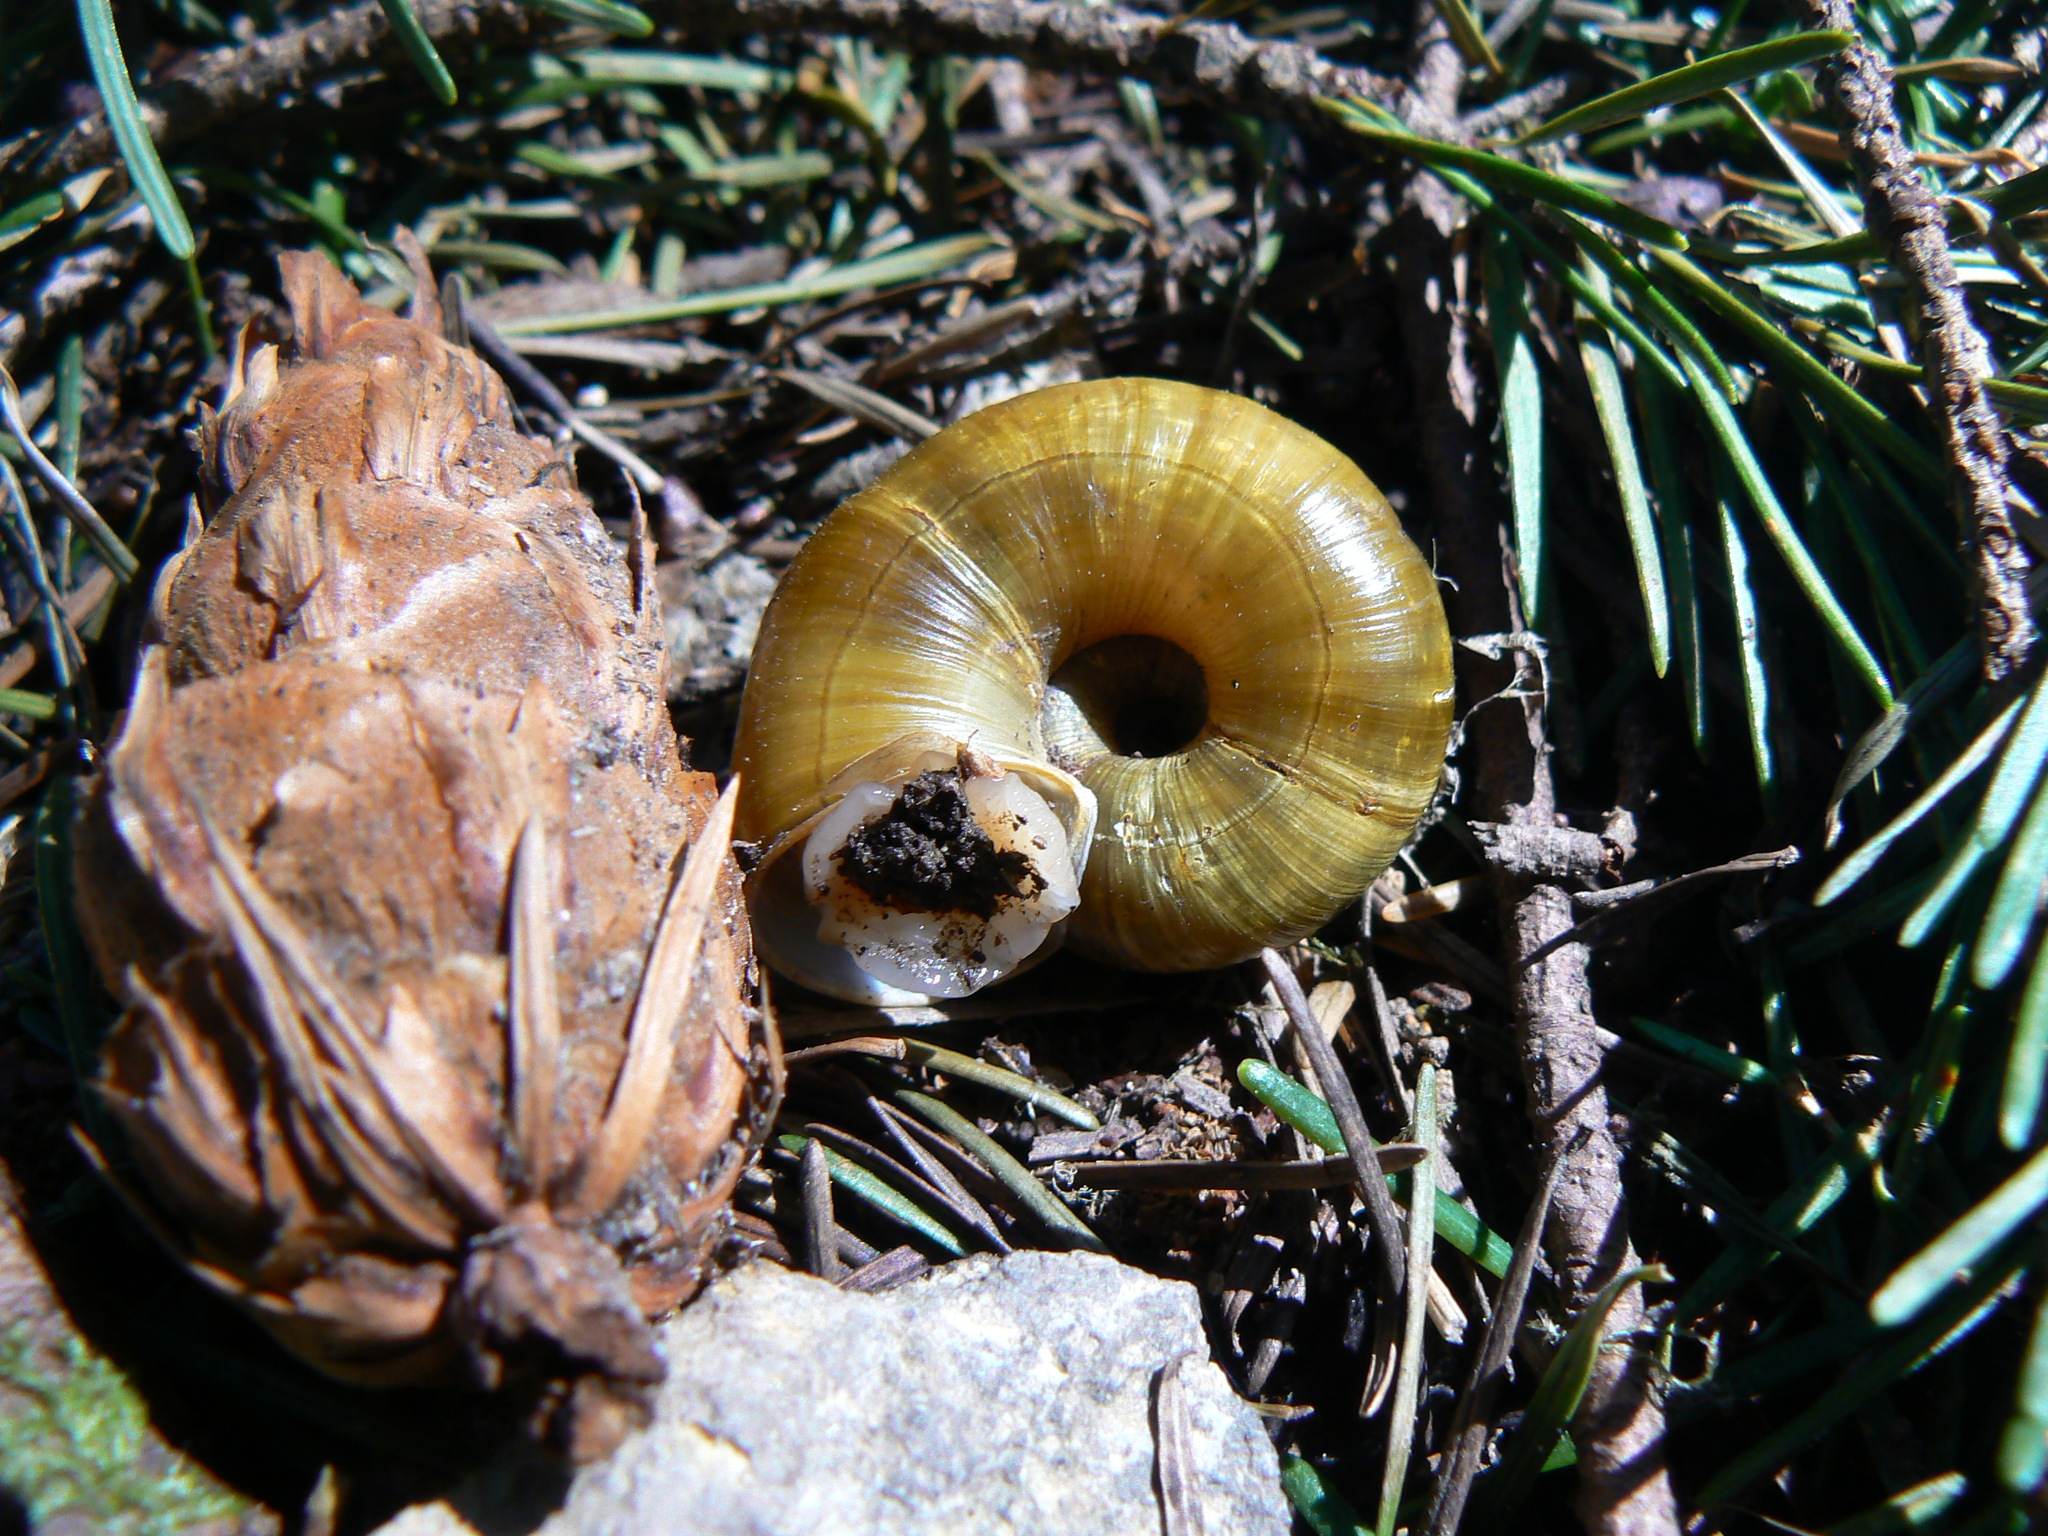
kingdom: Animalia
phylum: Mollusca
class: Gastropoda
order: Stylommatophora
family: Haplotrematidae
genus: Haplotrema
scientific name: Haplotrema vancouverense
